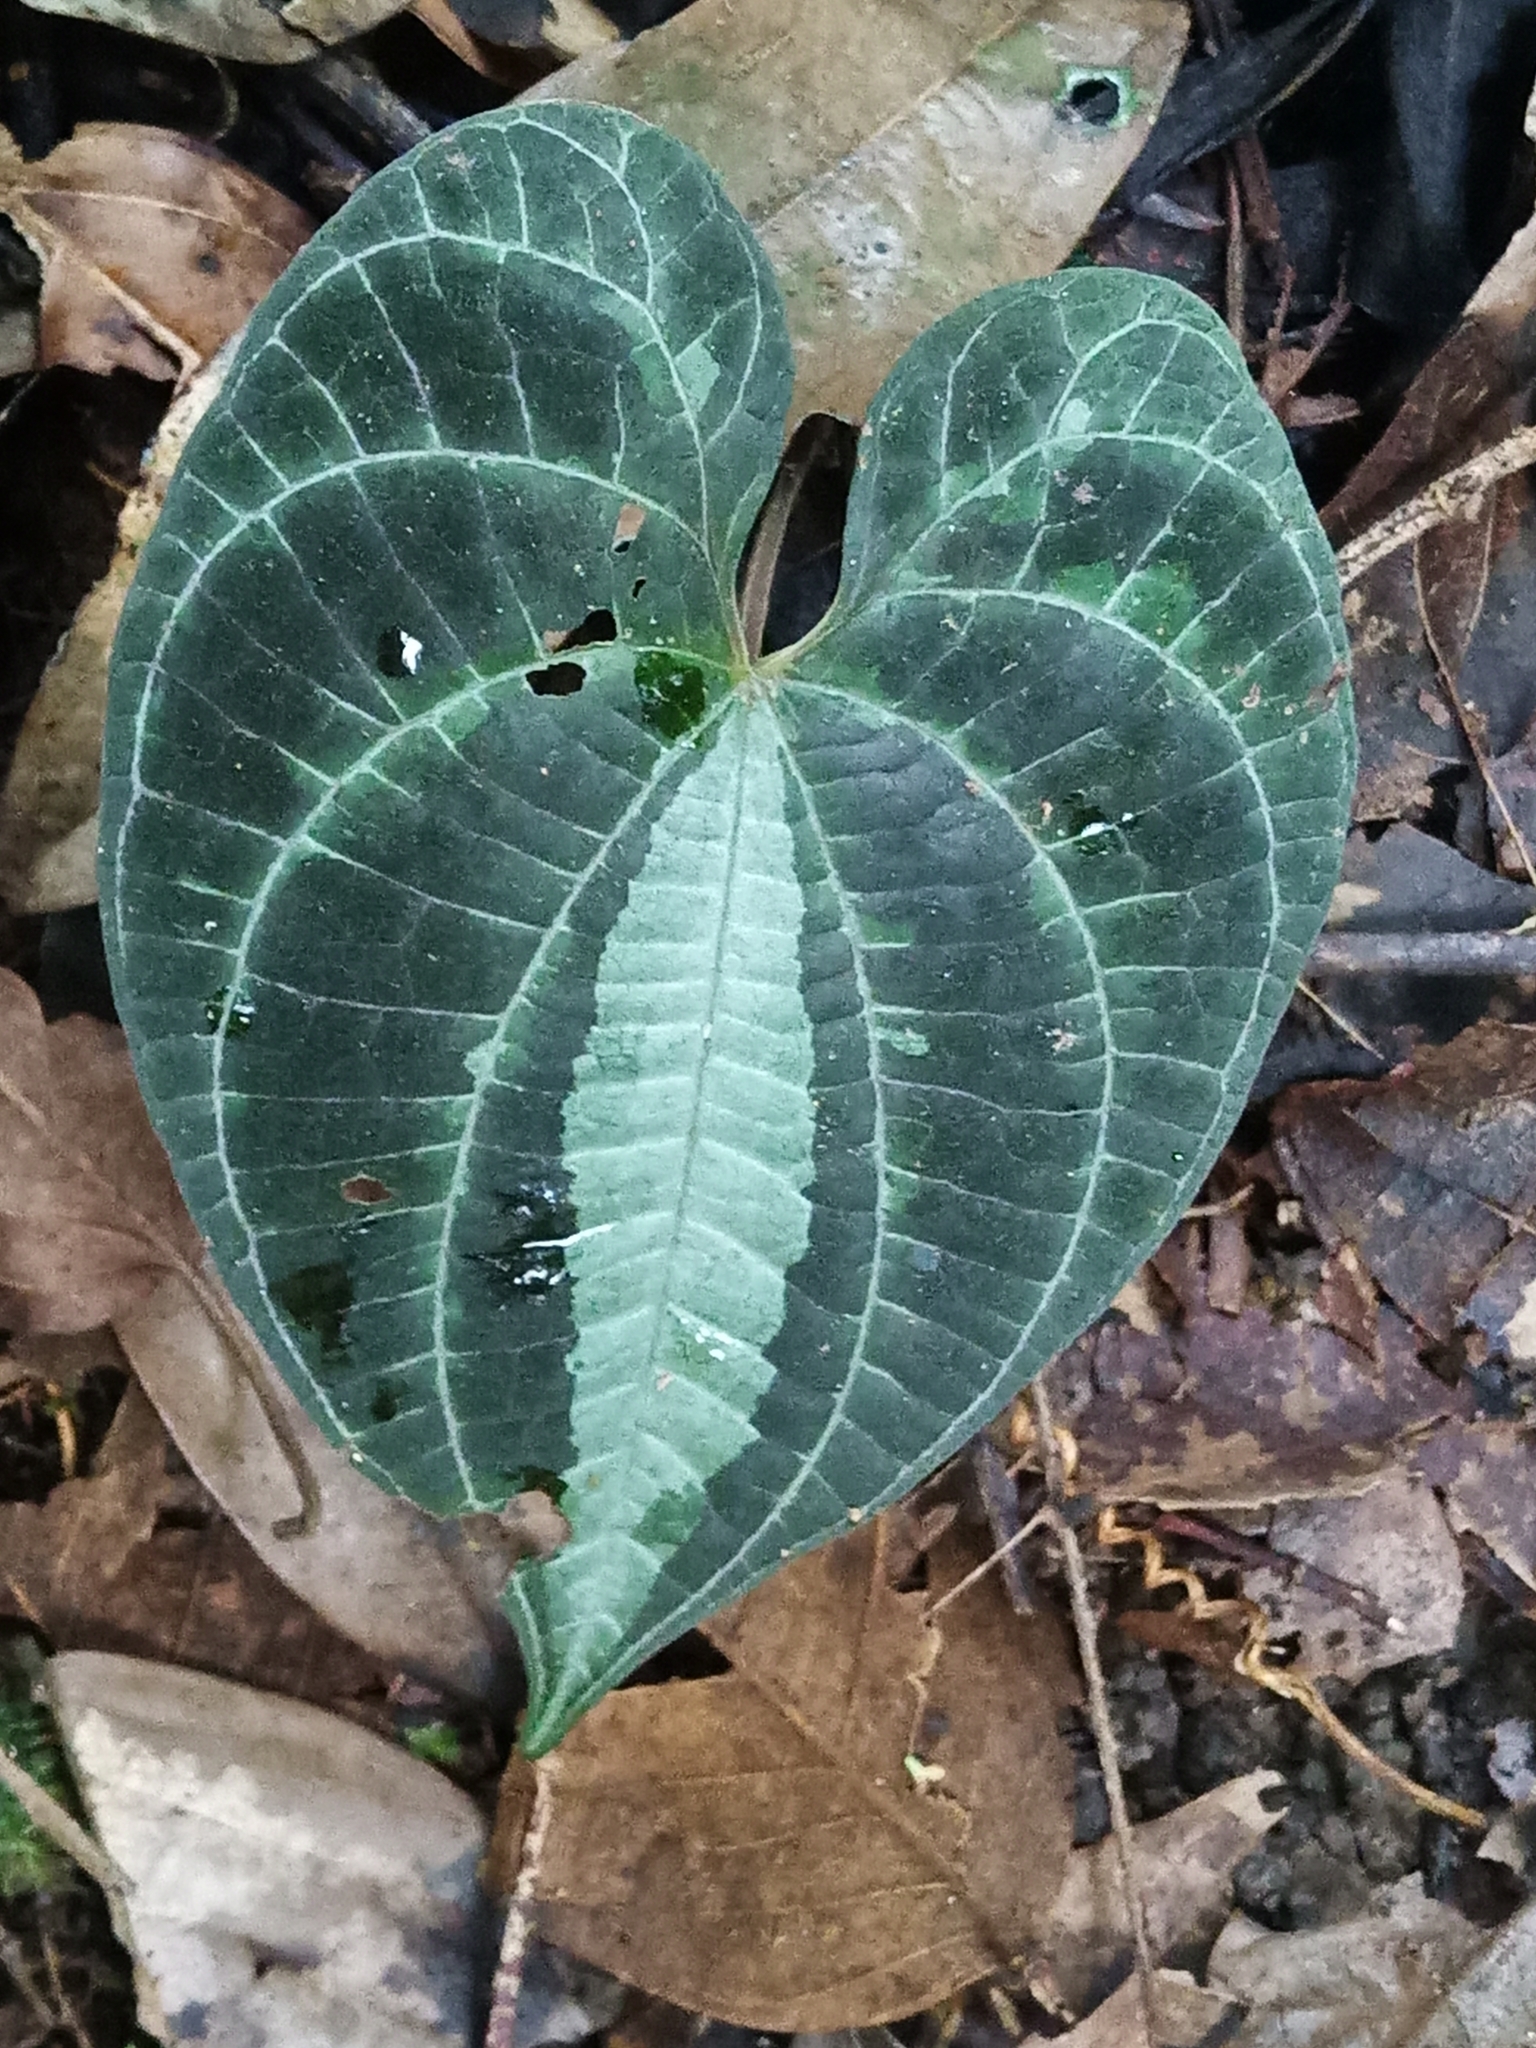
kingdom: Plantae
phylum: Tracheophyta
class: Liliopsida
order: Dioscoreales
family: Dioscoreaceae
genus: Dioscorea
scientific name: Dioscorea dodecaneura
